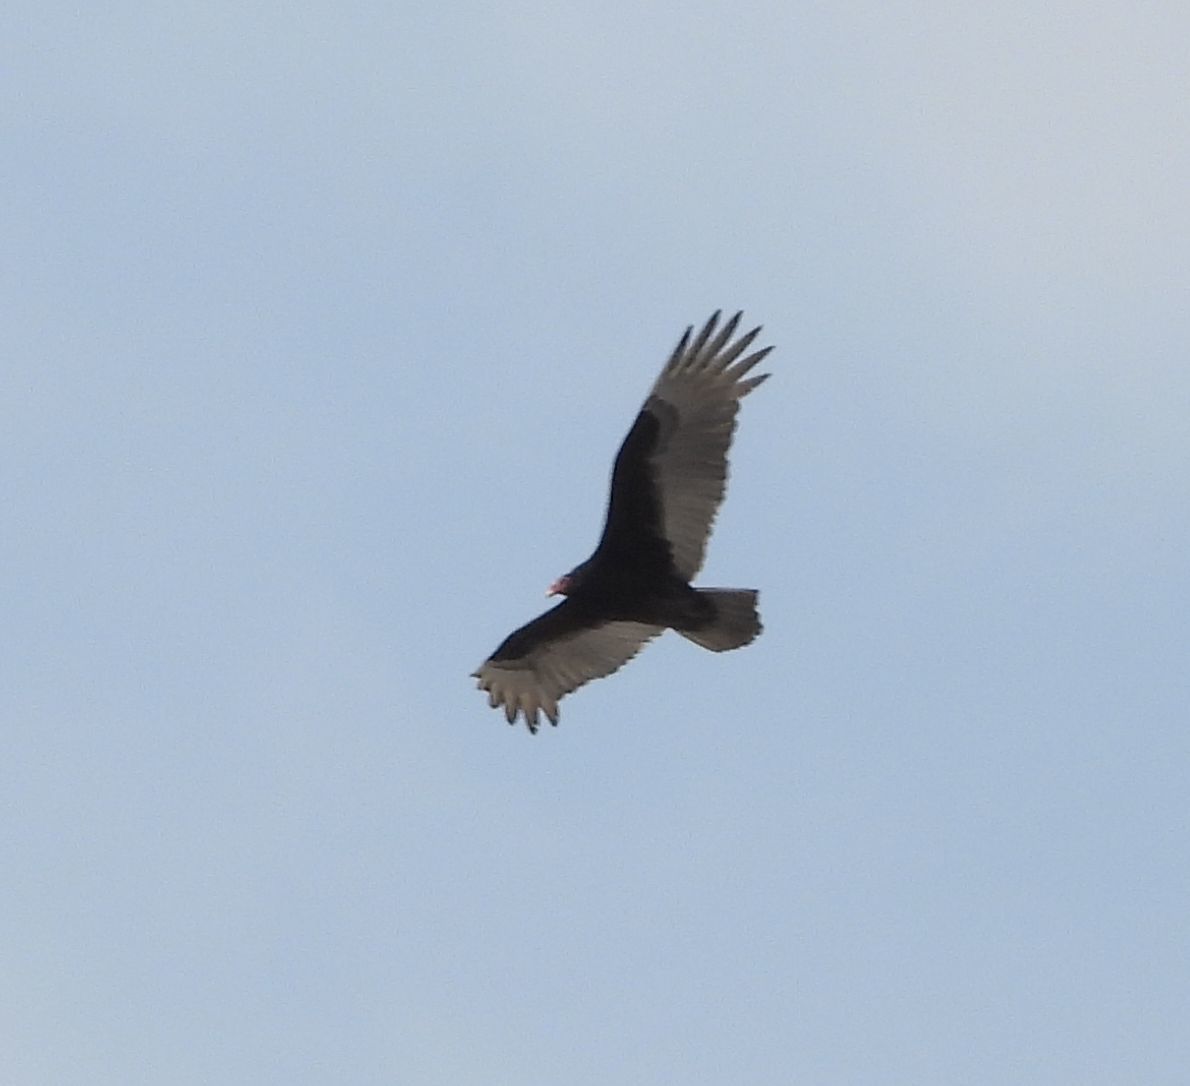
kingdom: Animalia
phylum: Chordata
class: Aves
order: Accipitriformes
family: Cathartidae
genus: Cathartes
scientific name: Cathartes aura
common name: Turkey vulture
